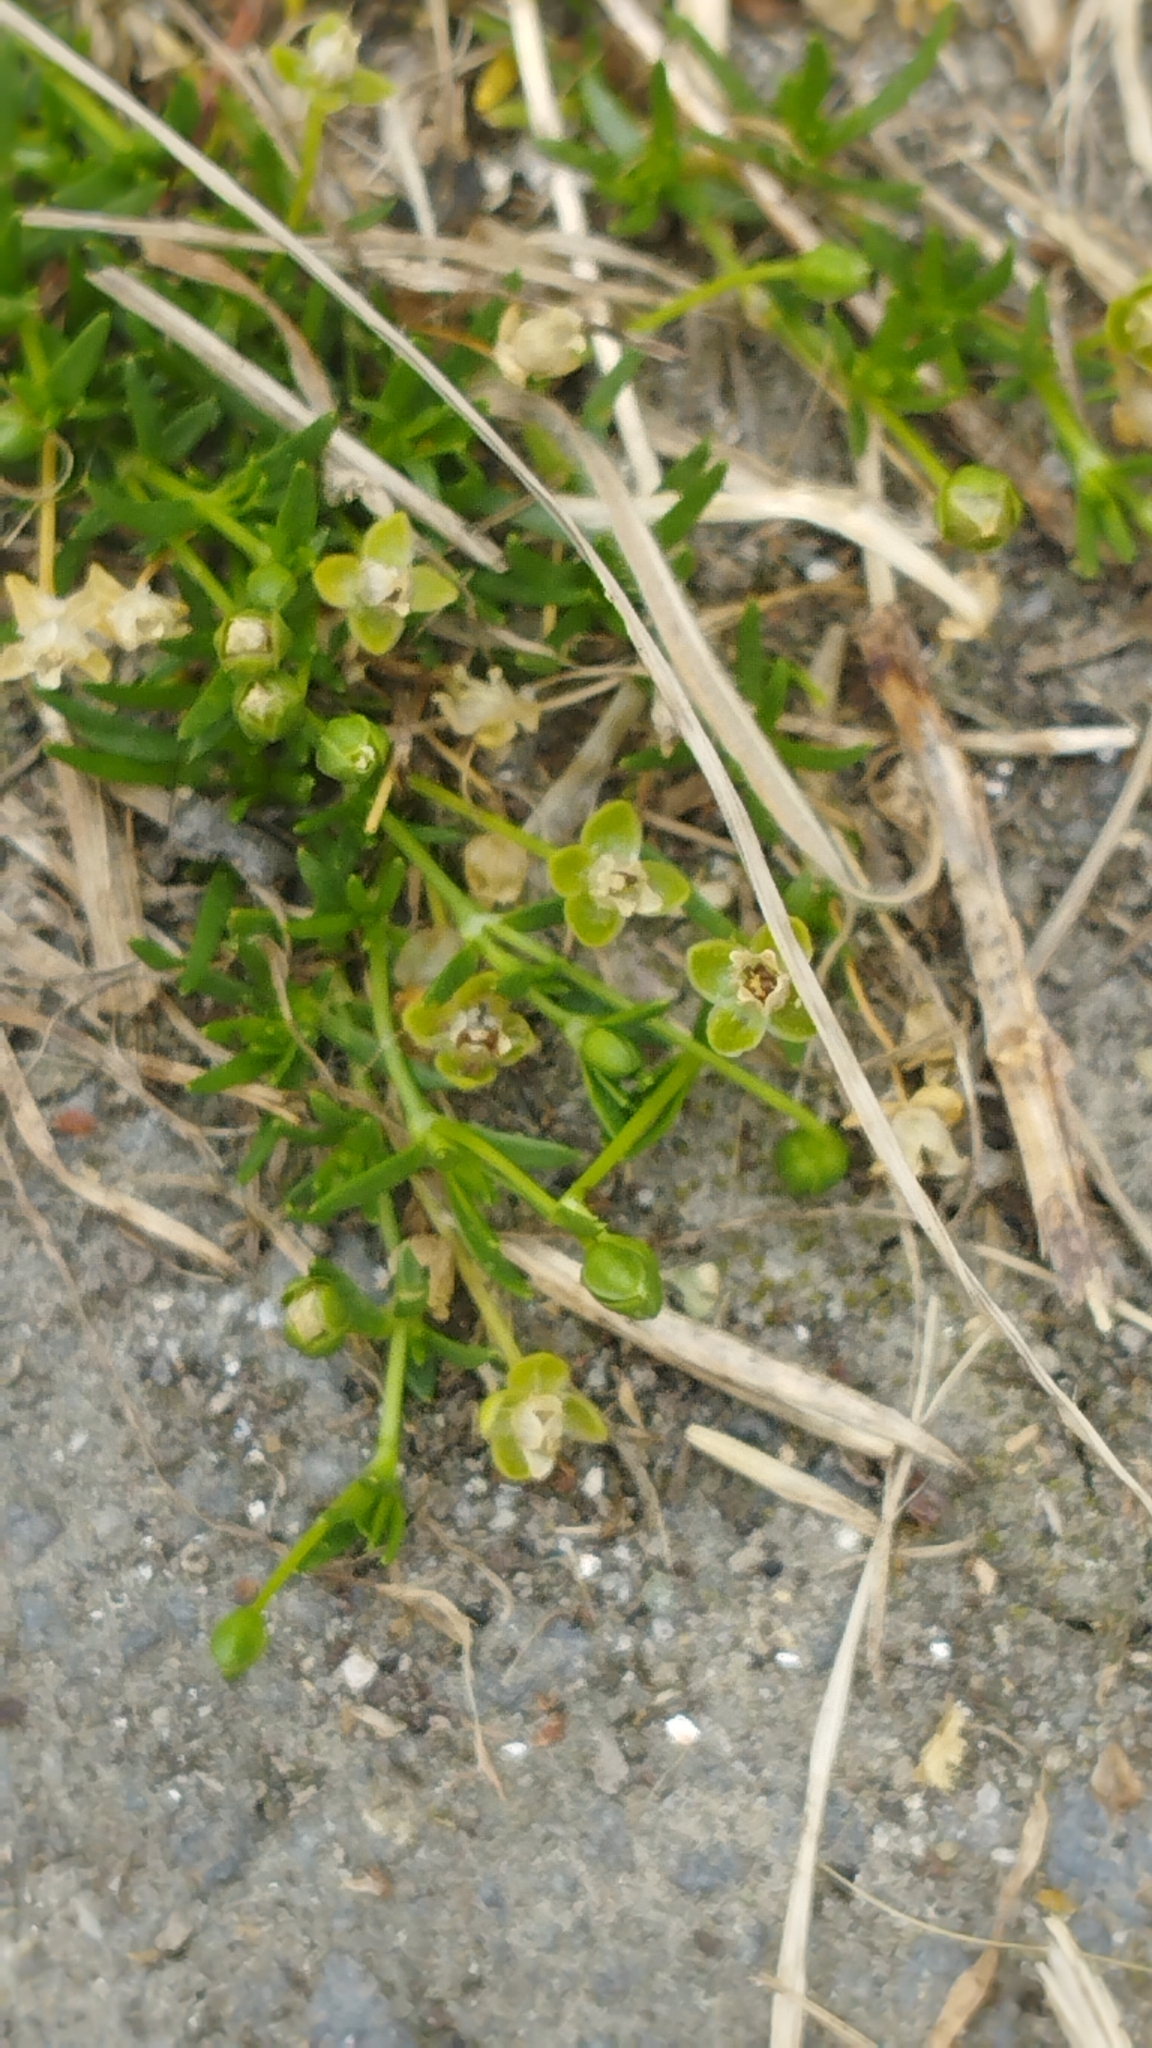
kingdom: Plantae
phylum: Tracheophyta
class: Magnoliopsida
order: Caryophyllales
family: Caryophyllaceae
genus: Sagina
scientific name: Sagina procumbens
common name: Procumbent pearlwort
